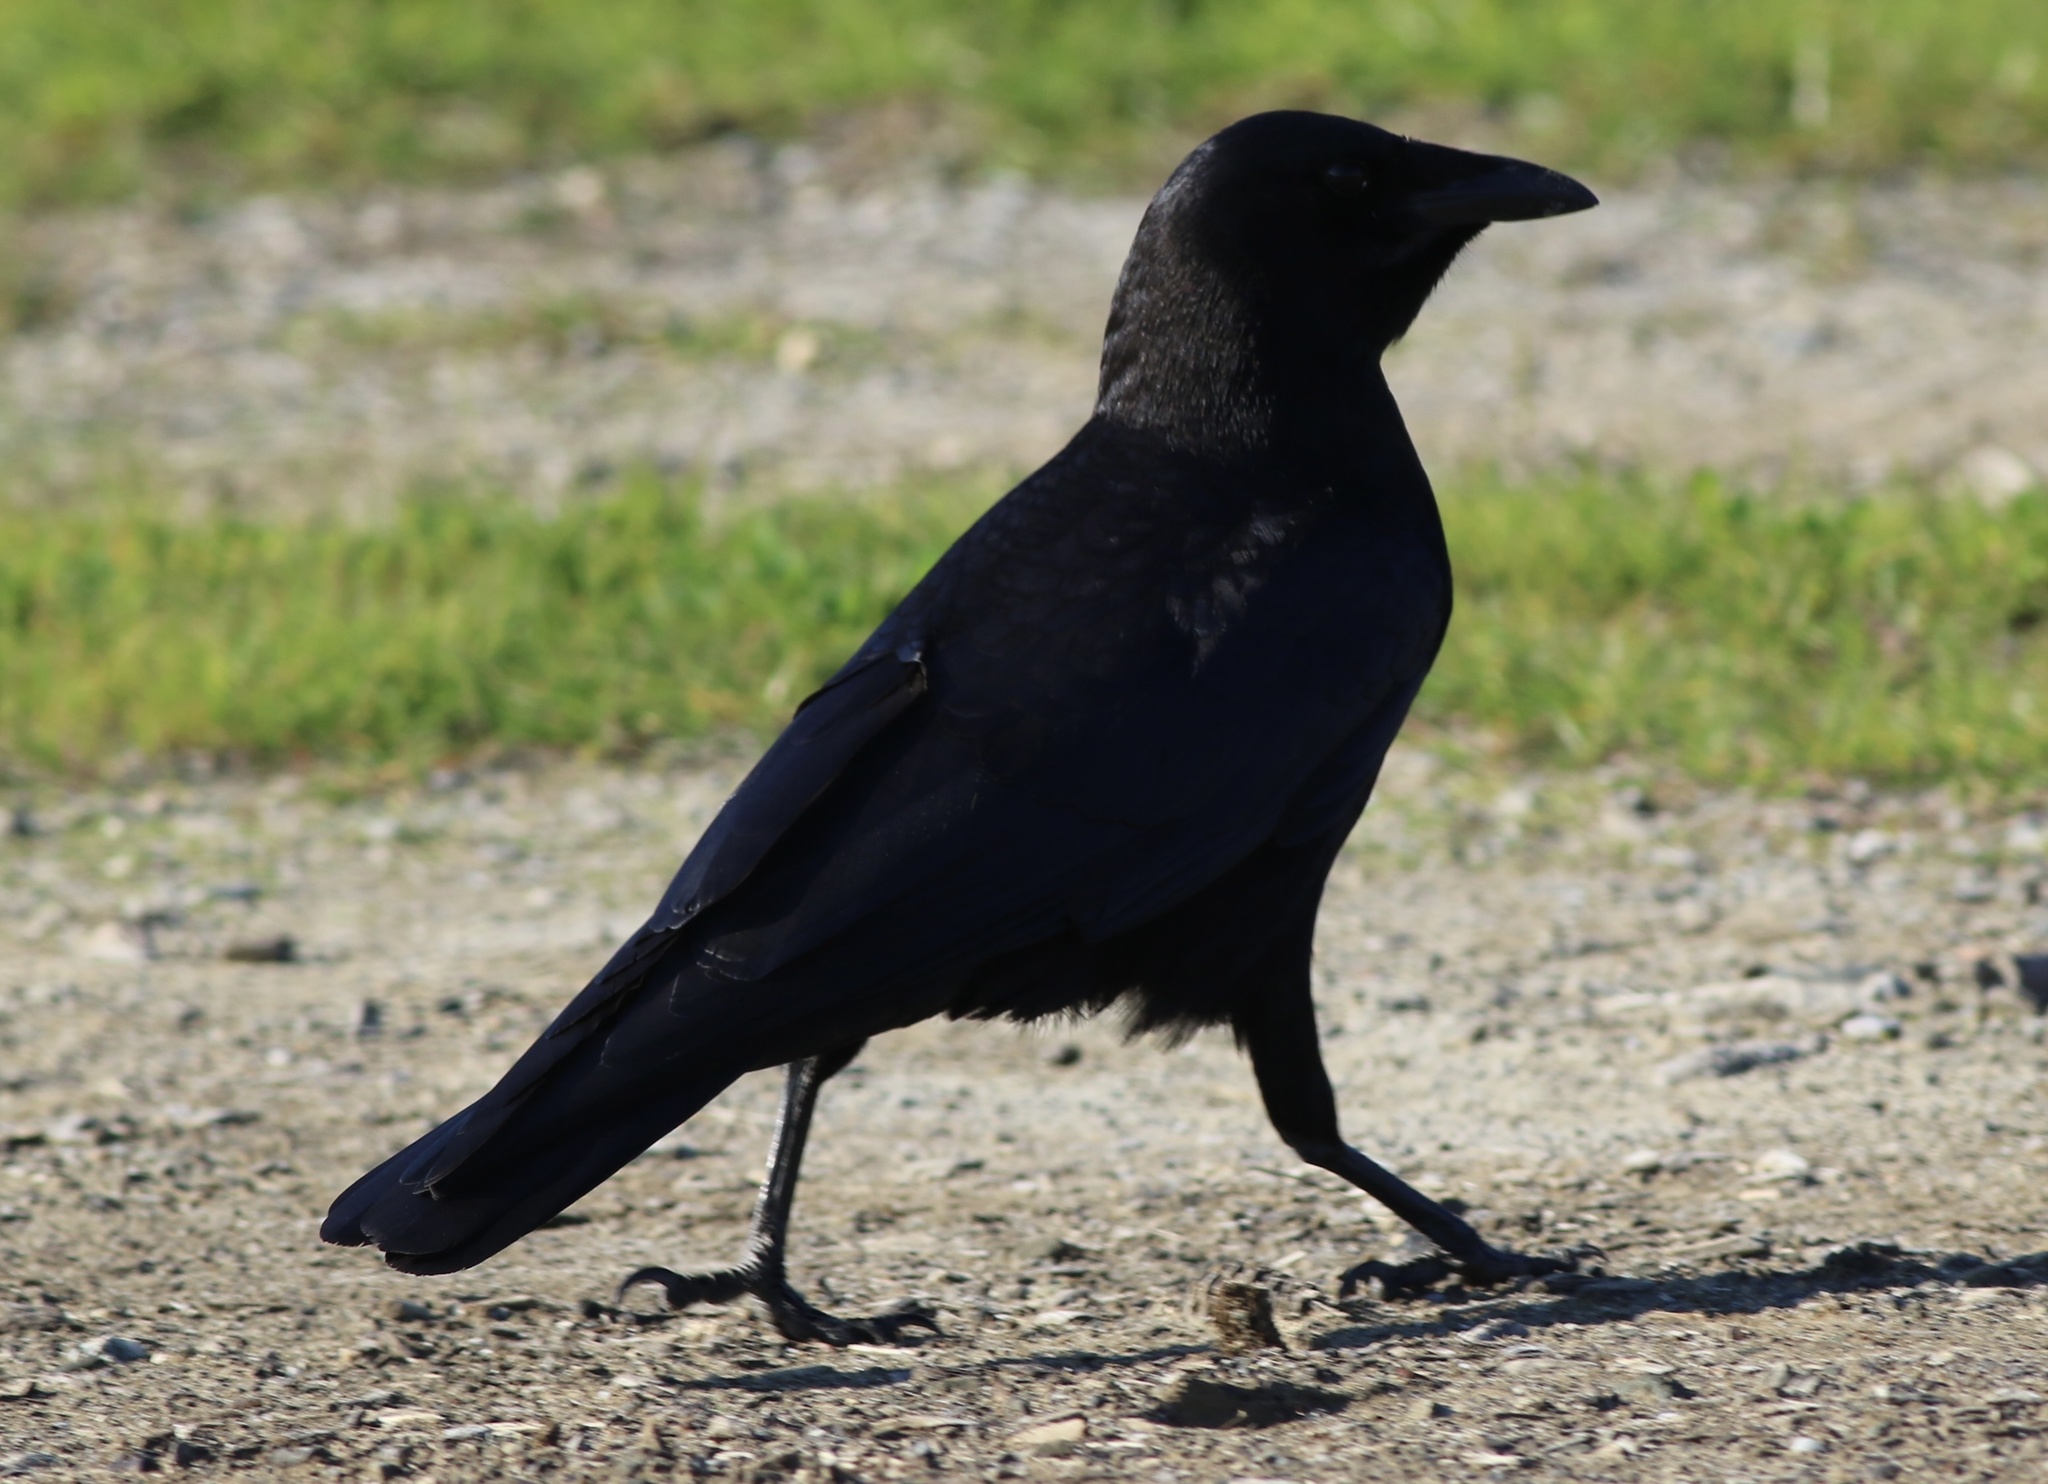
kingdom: Animalia
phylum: Chordata
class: Aves
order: Passeriformes
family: Corvidae
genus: Corvus
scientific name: Corvus brachyrhynchos
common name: American crow
